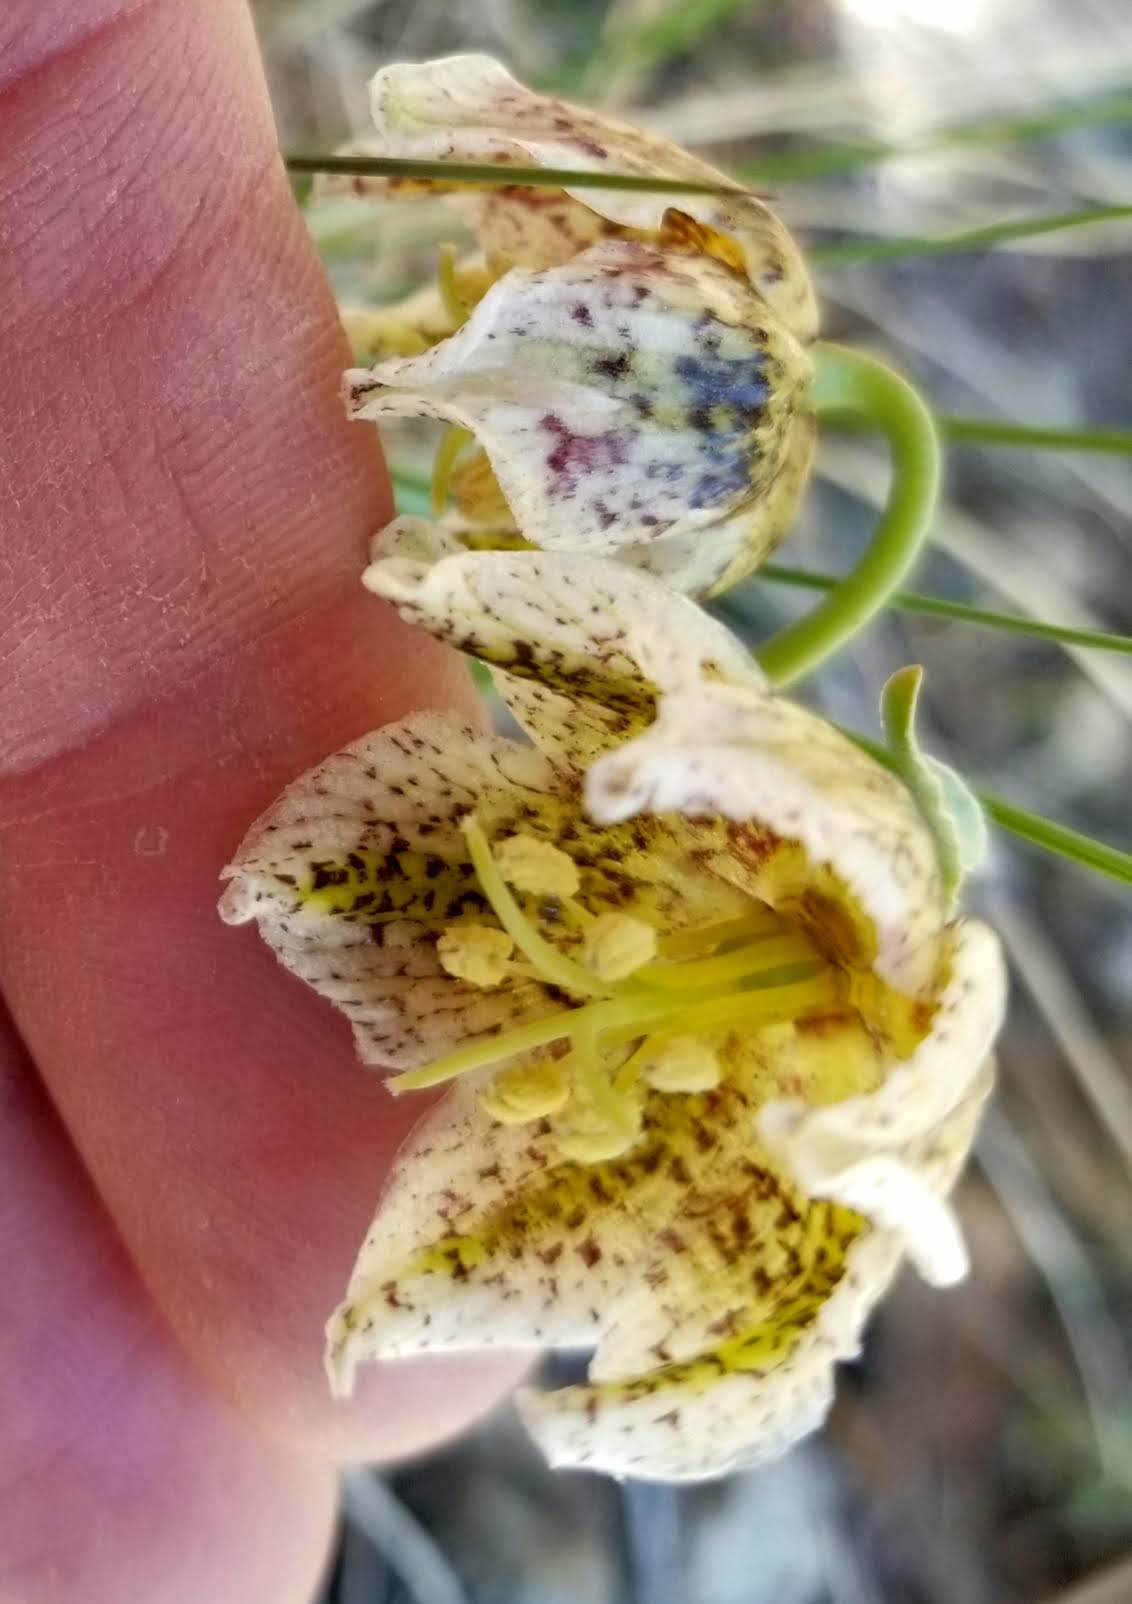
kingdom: Plantae
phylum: Tracheophyta
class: Liliopsida
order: Liliales
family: Liliaceae
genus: Fritillaria
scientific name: Fritillaria purdyi
